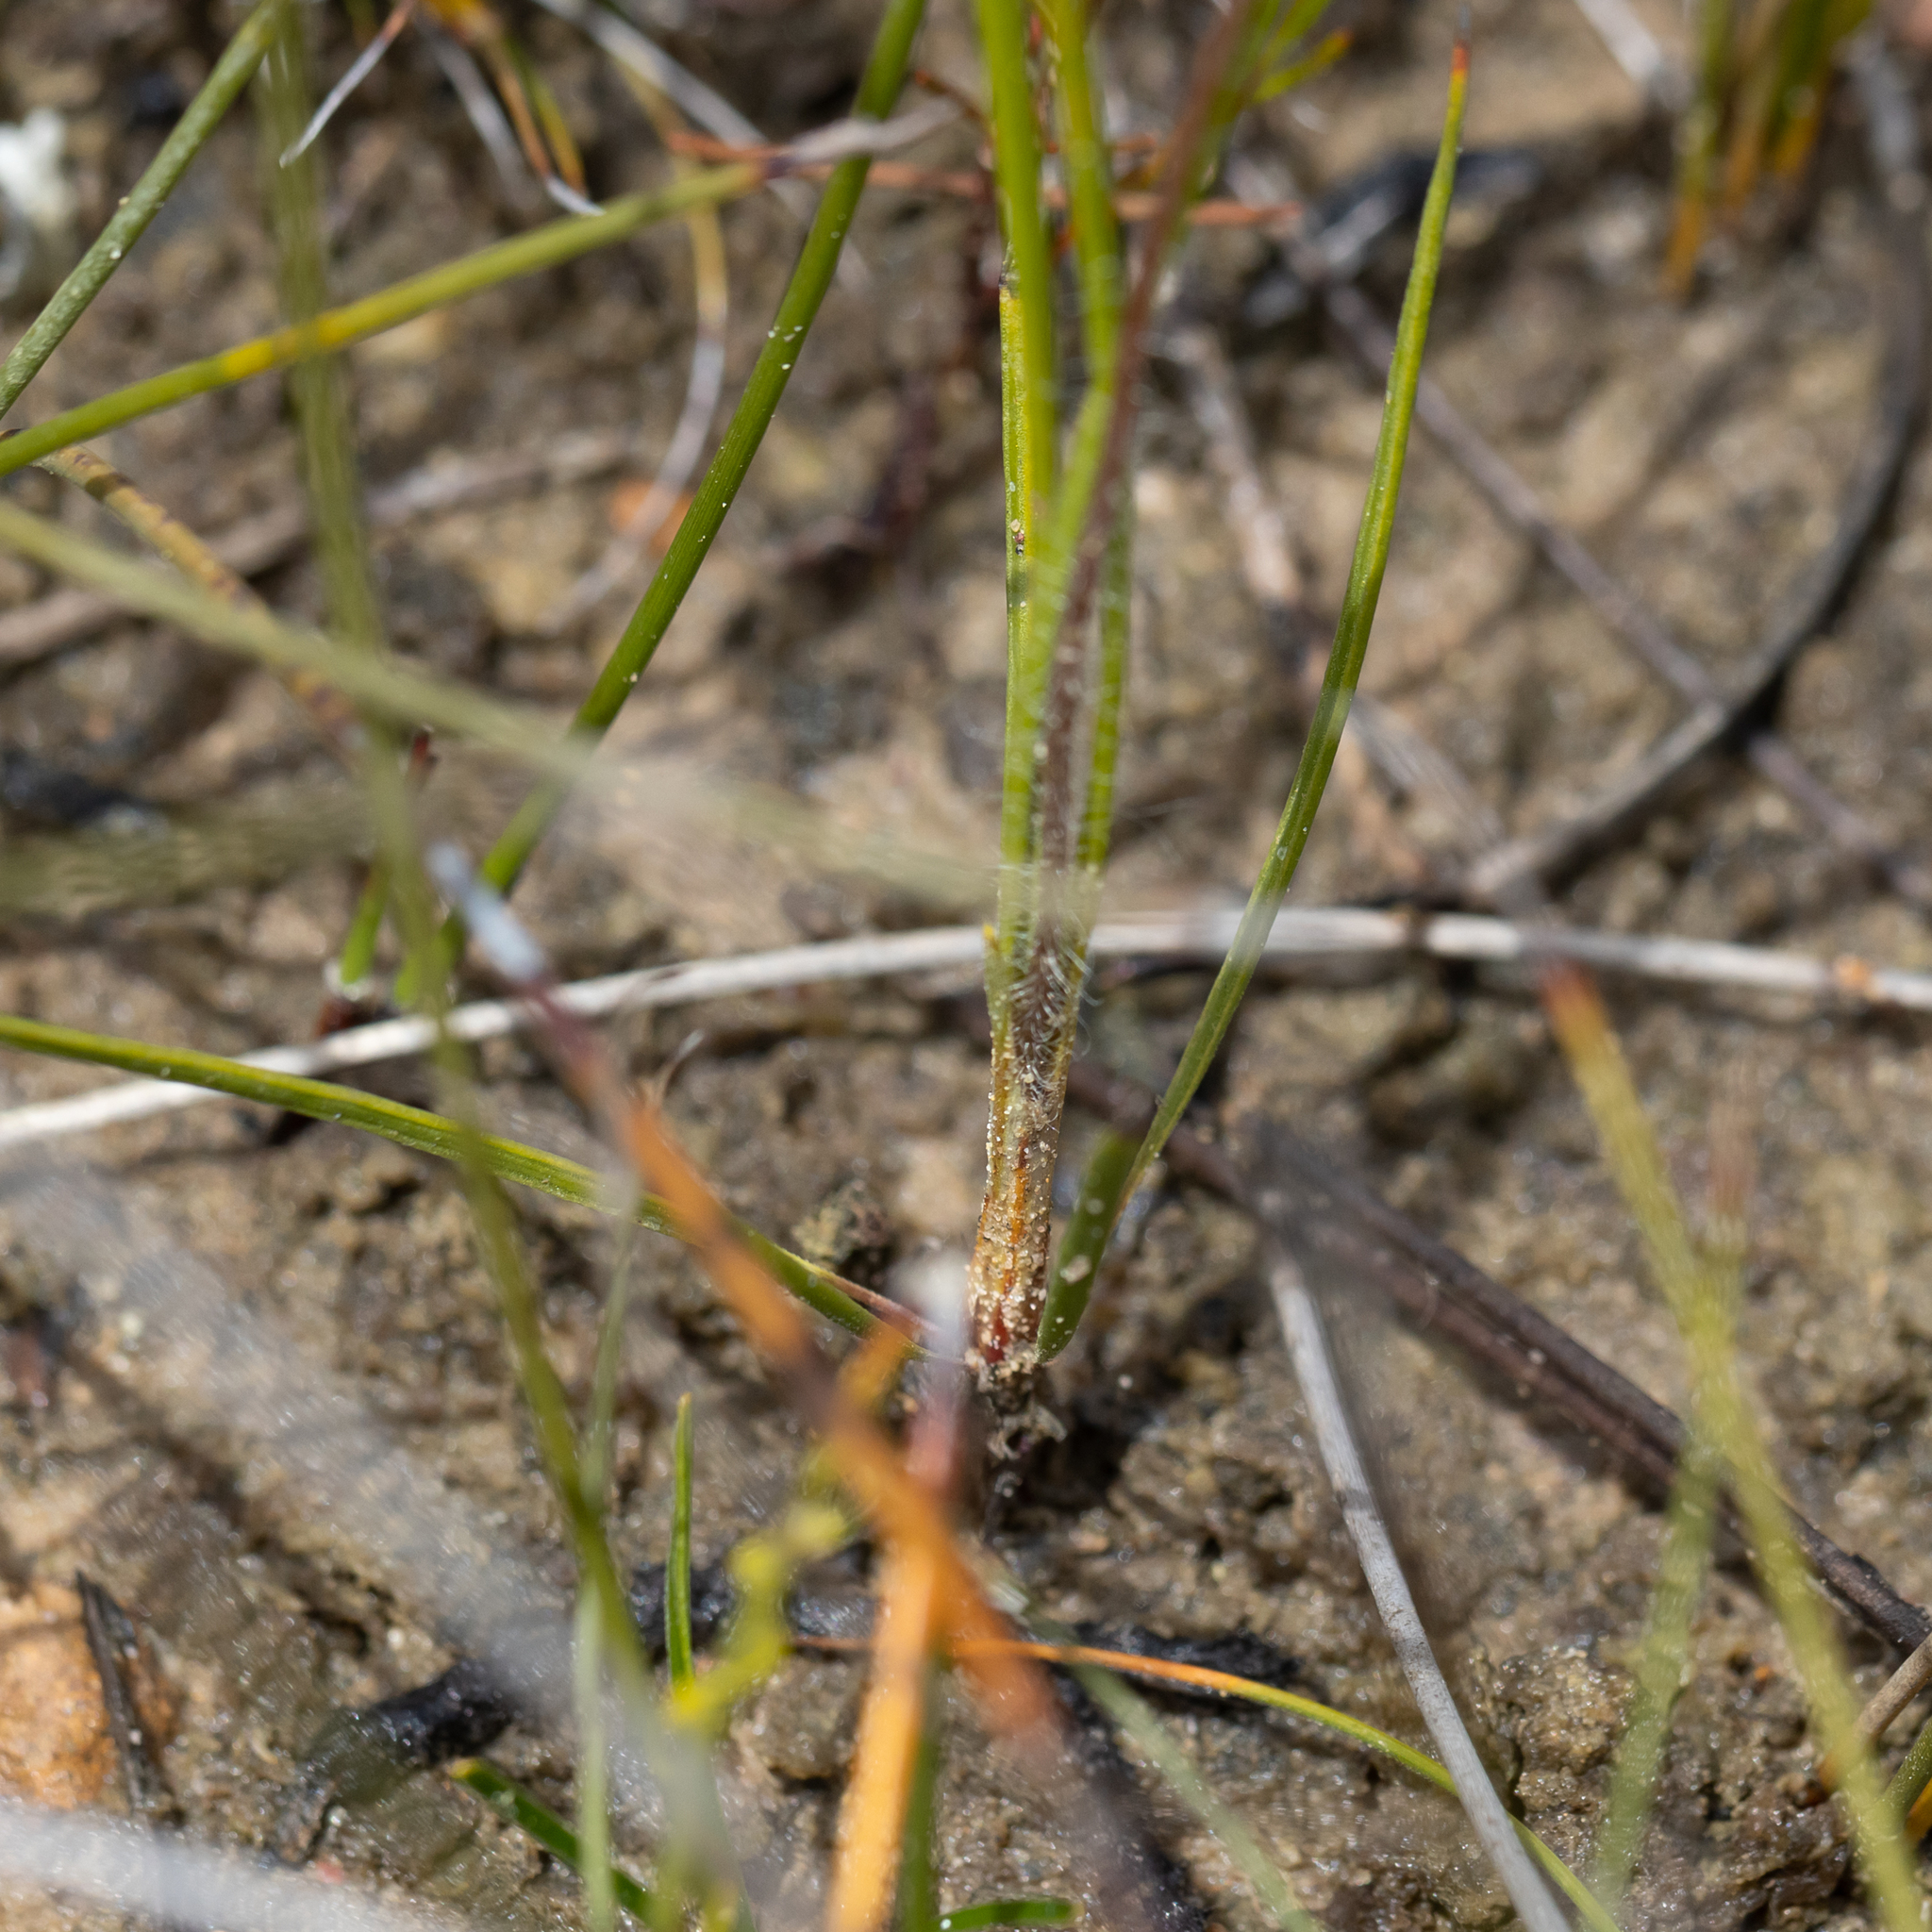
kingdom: Plantae
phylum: Tracheophyta
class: Magnoliopsida
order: Asterales
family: Stylidiaceae
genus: Stylidium
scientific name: Stylidium hirsutum
